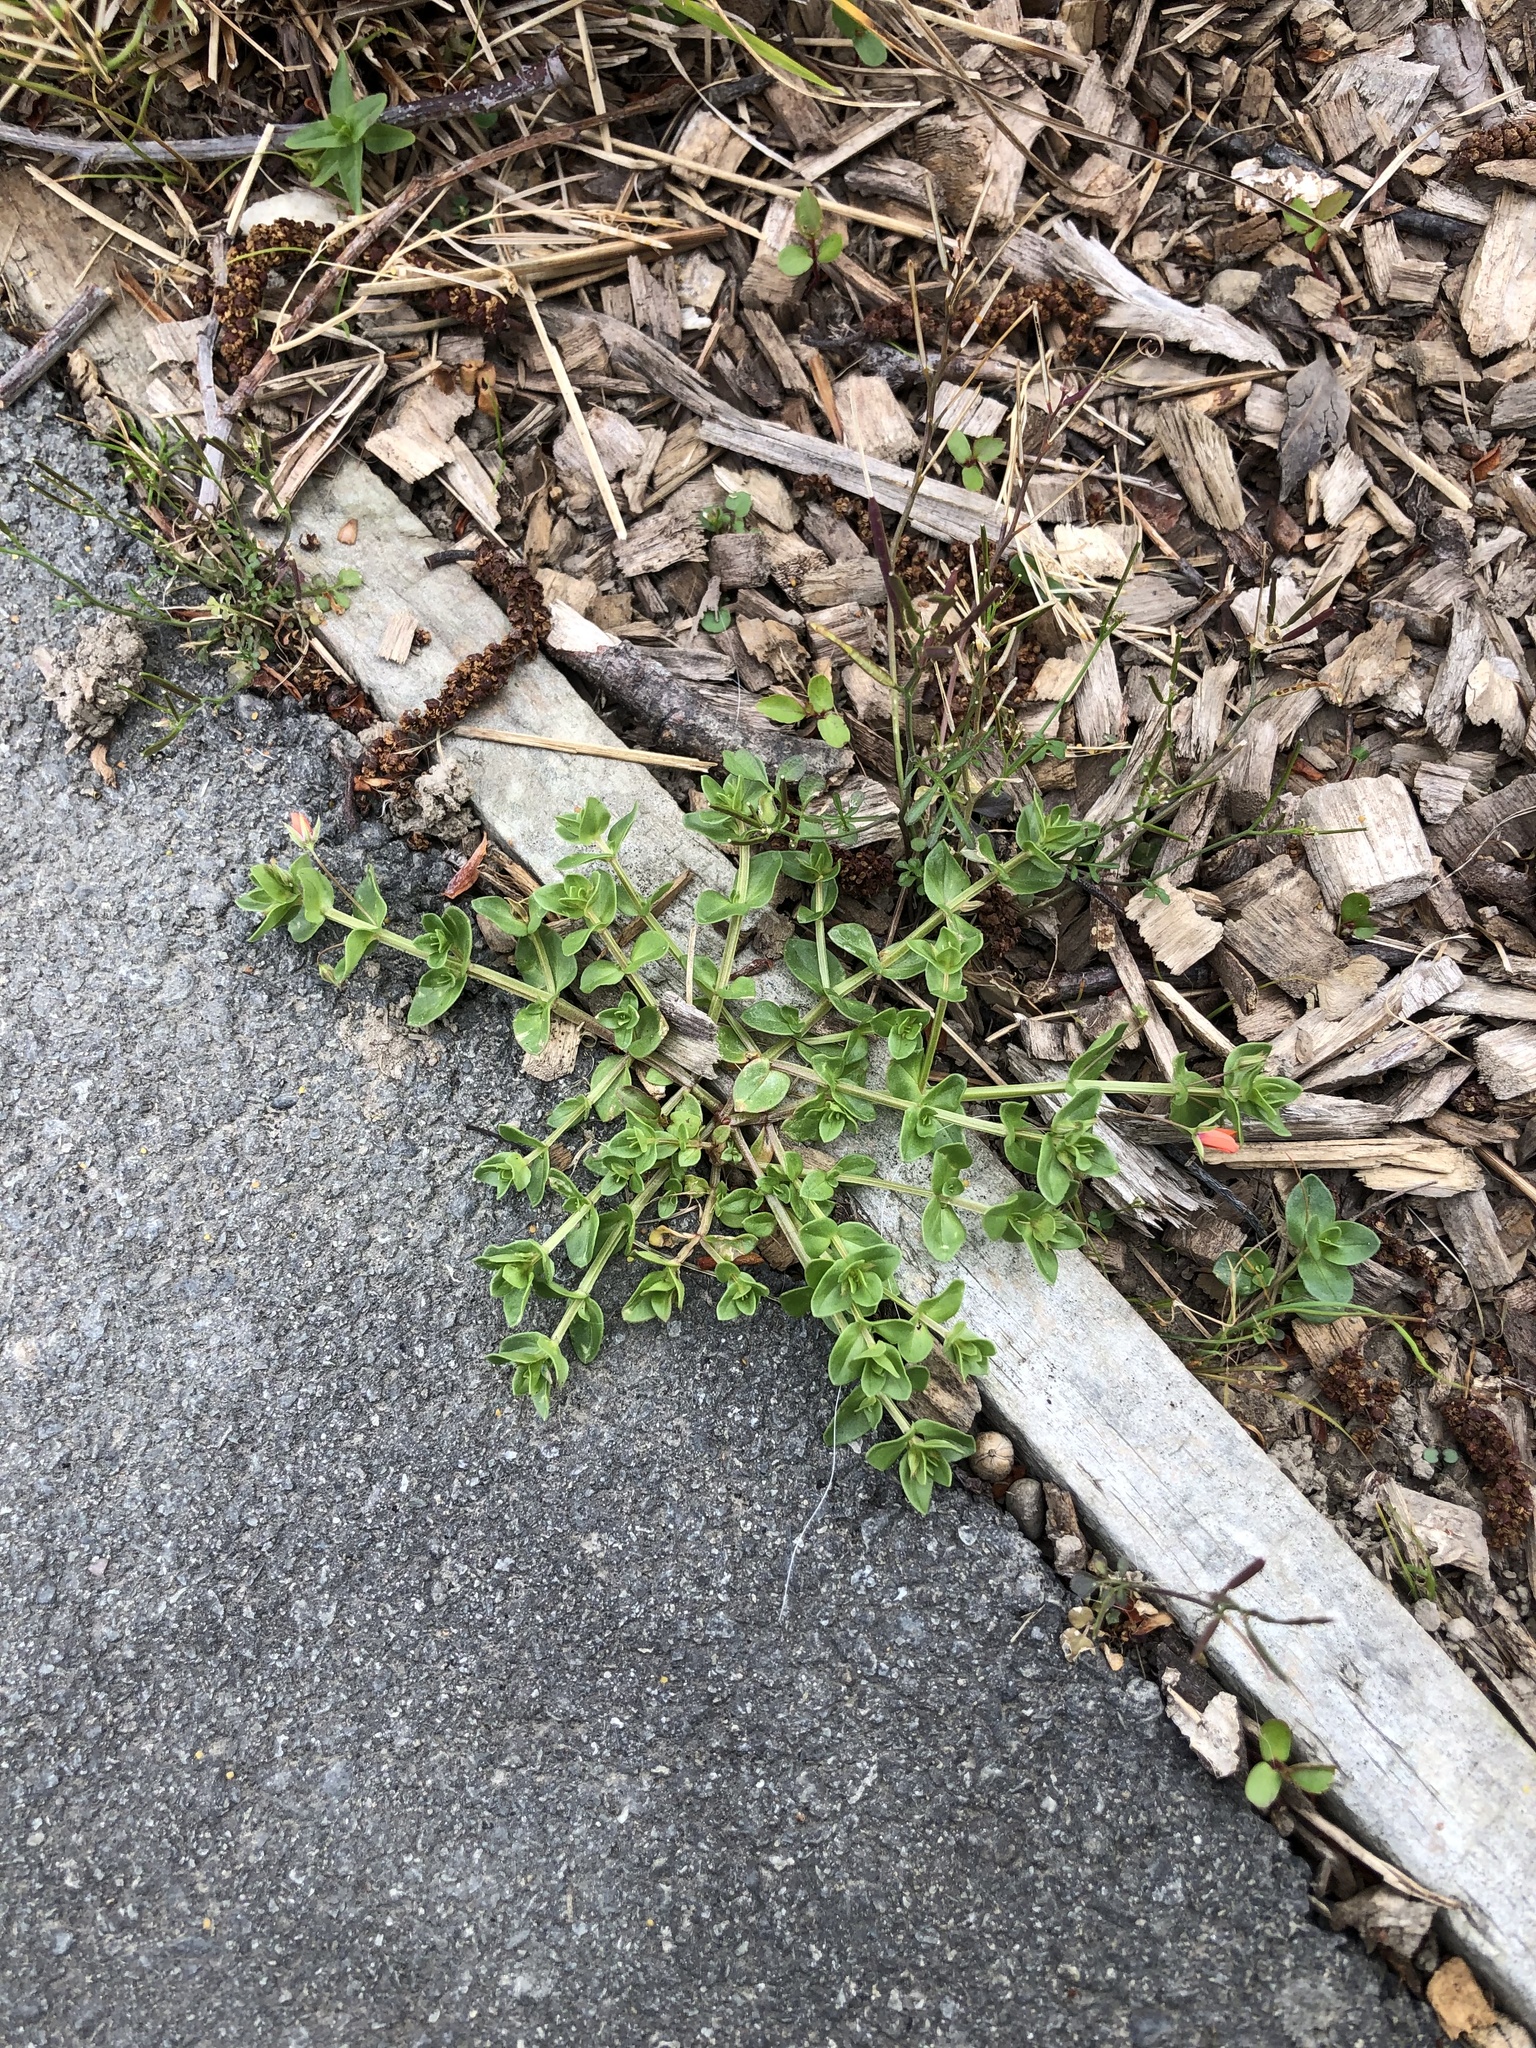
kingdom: Plantae
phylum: Tracheophyta
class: Magnoliopsida
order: Ericales
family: Primulaceae
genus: Lysimachia
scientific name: Lysimachia arvensis
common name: Scarlet pimpernel
